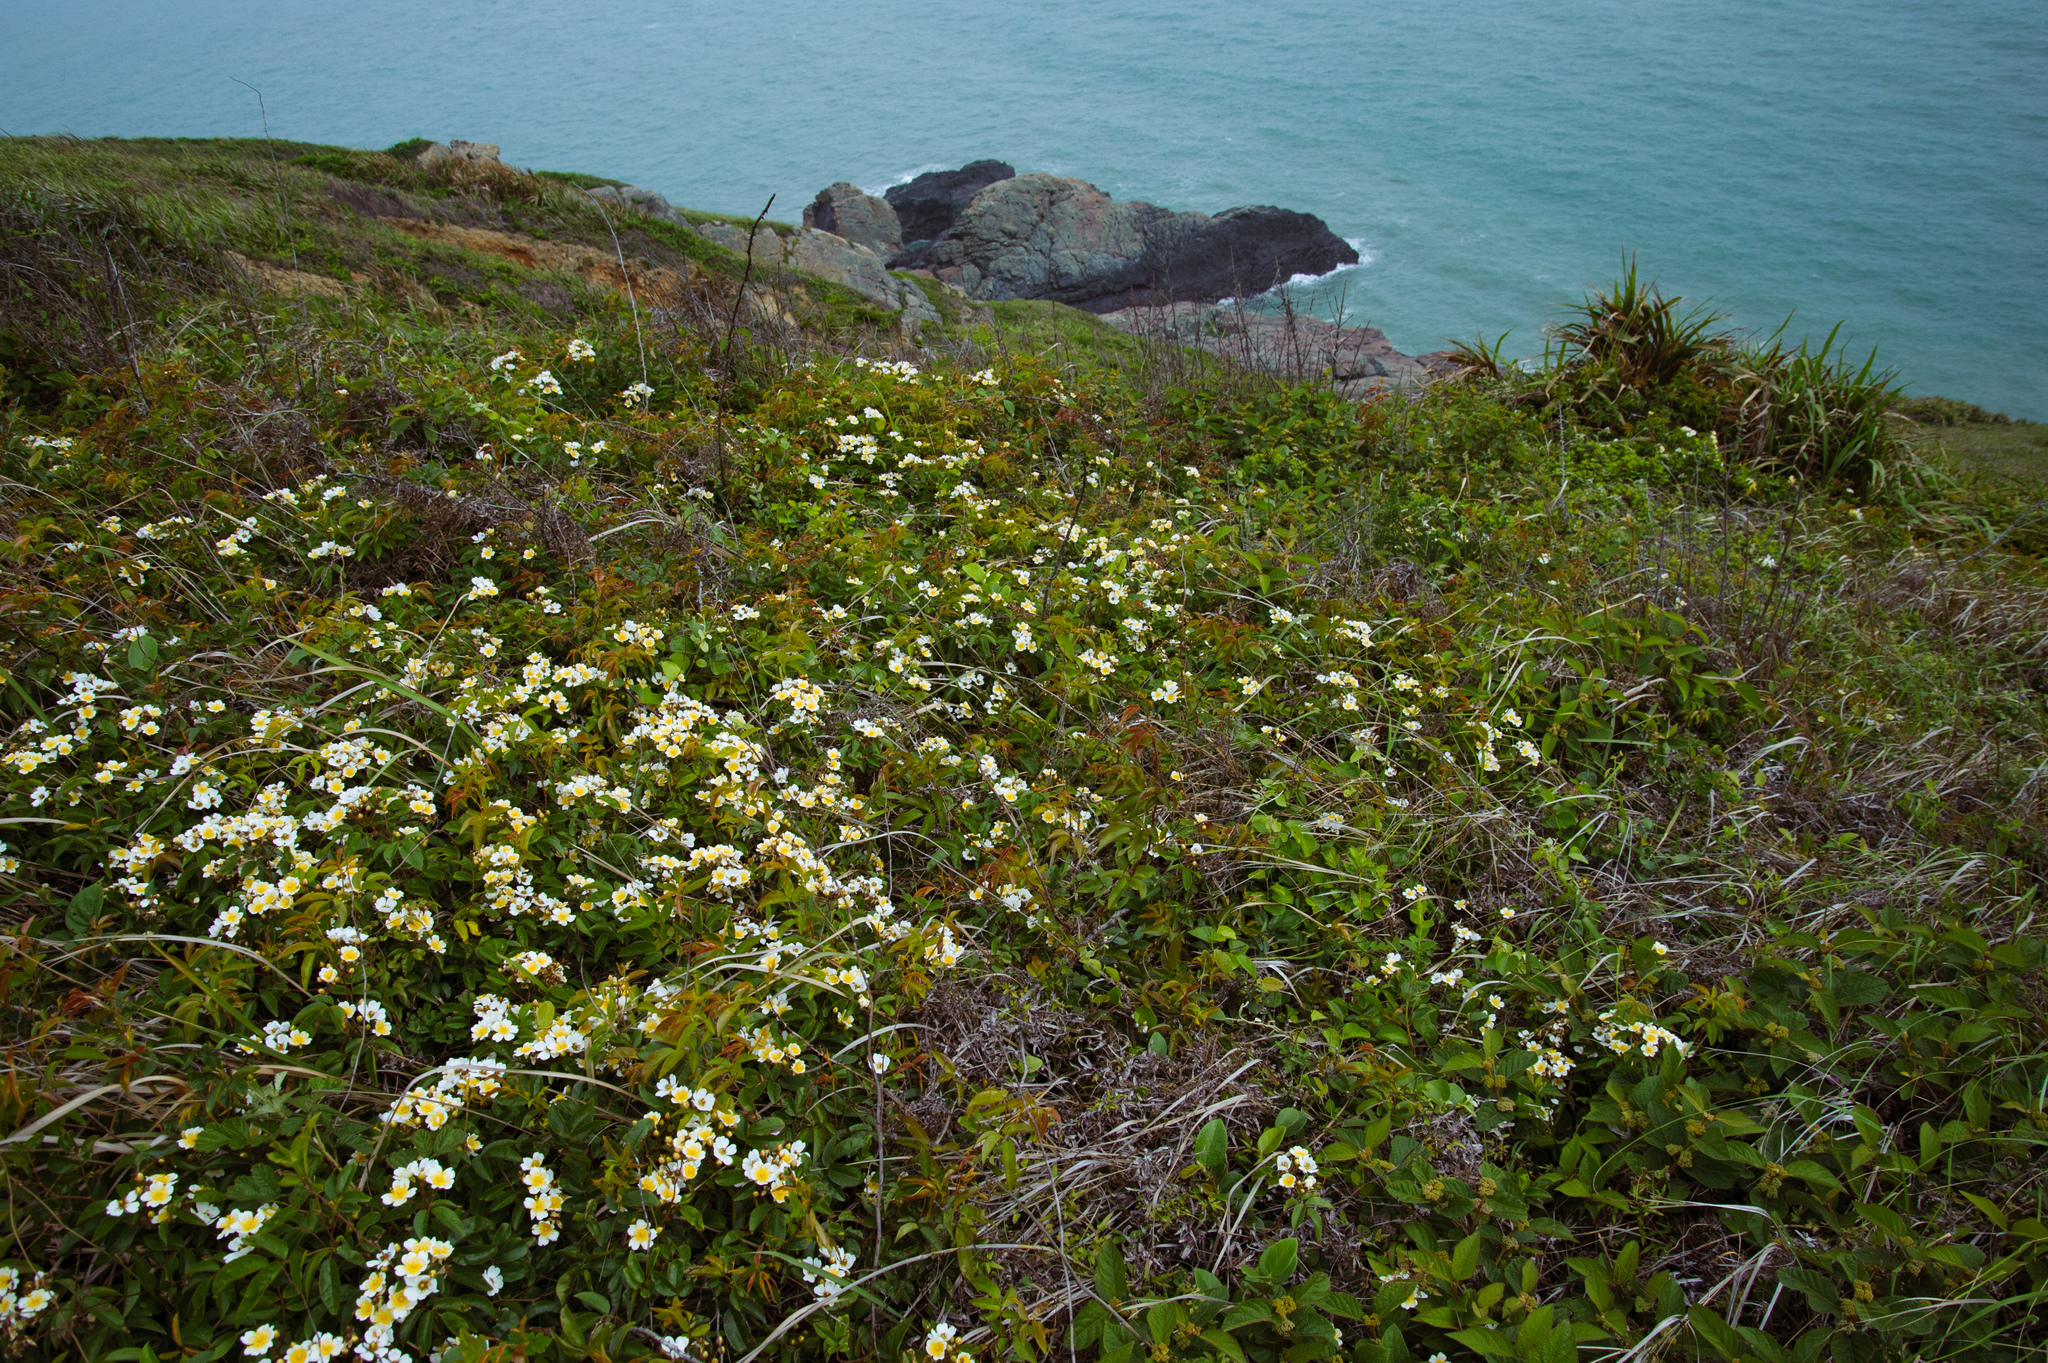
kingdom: Plantae
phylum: Tracheophyta
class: Magnoliopsida
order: Rosales
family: Rosaceae
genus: Rosa
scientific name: Rosa
